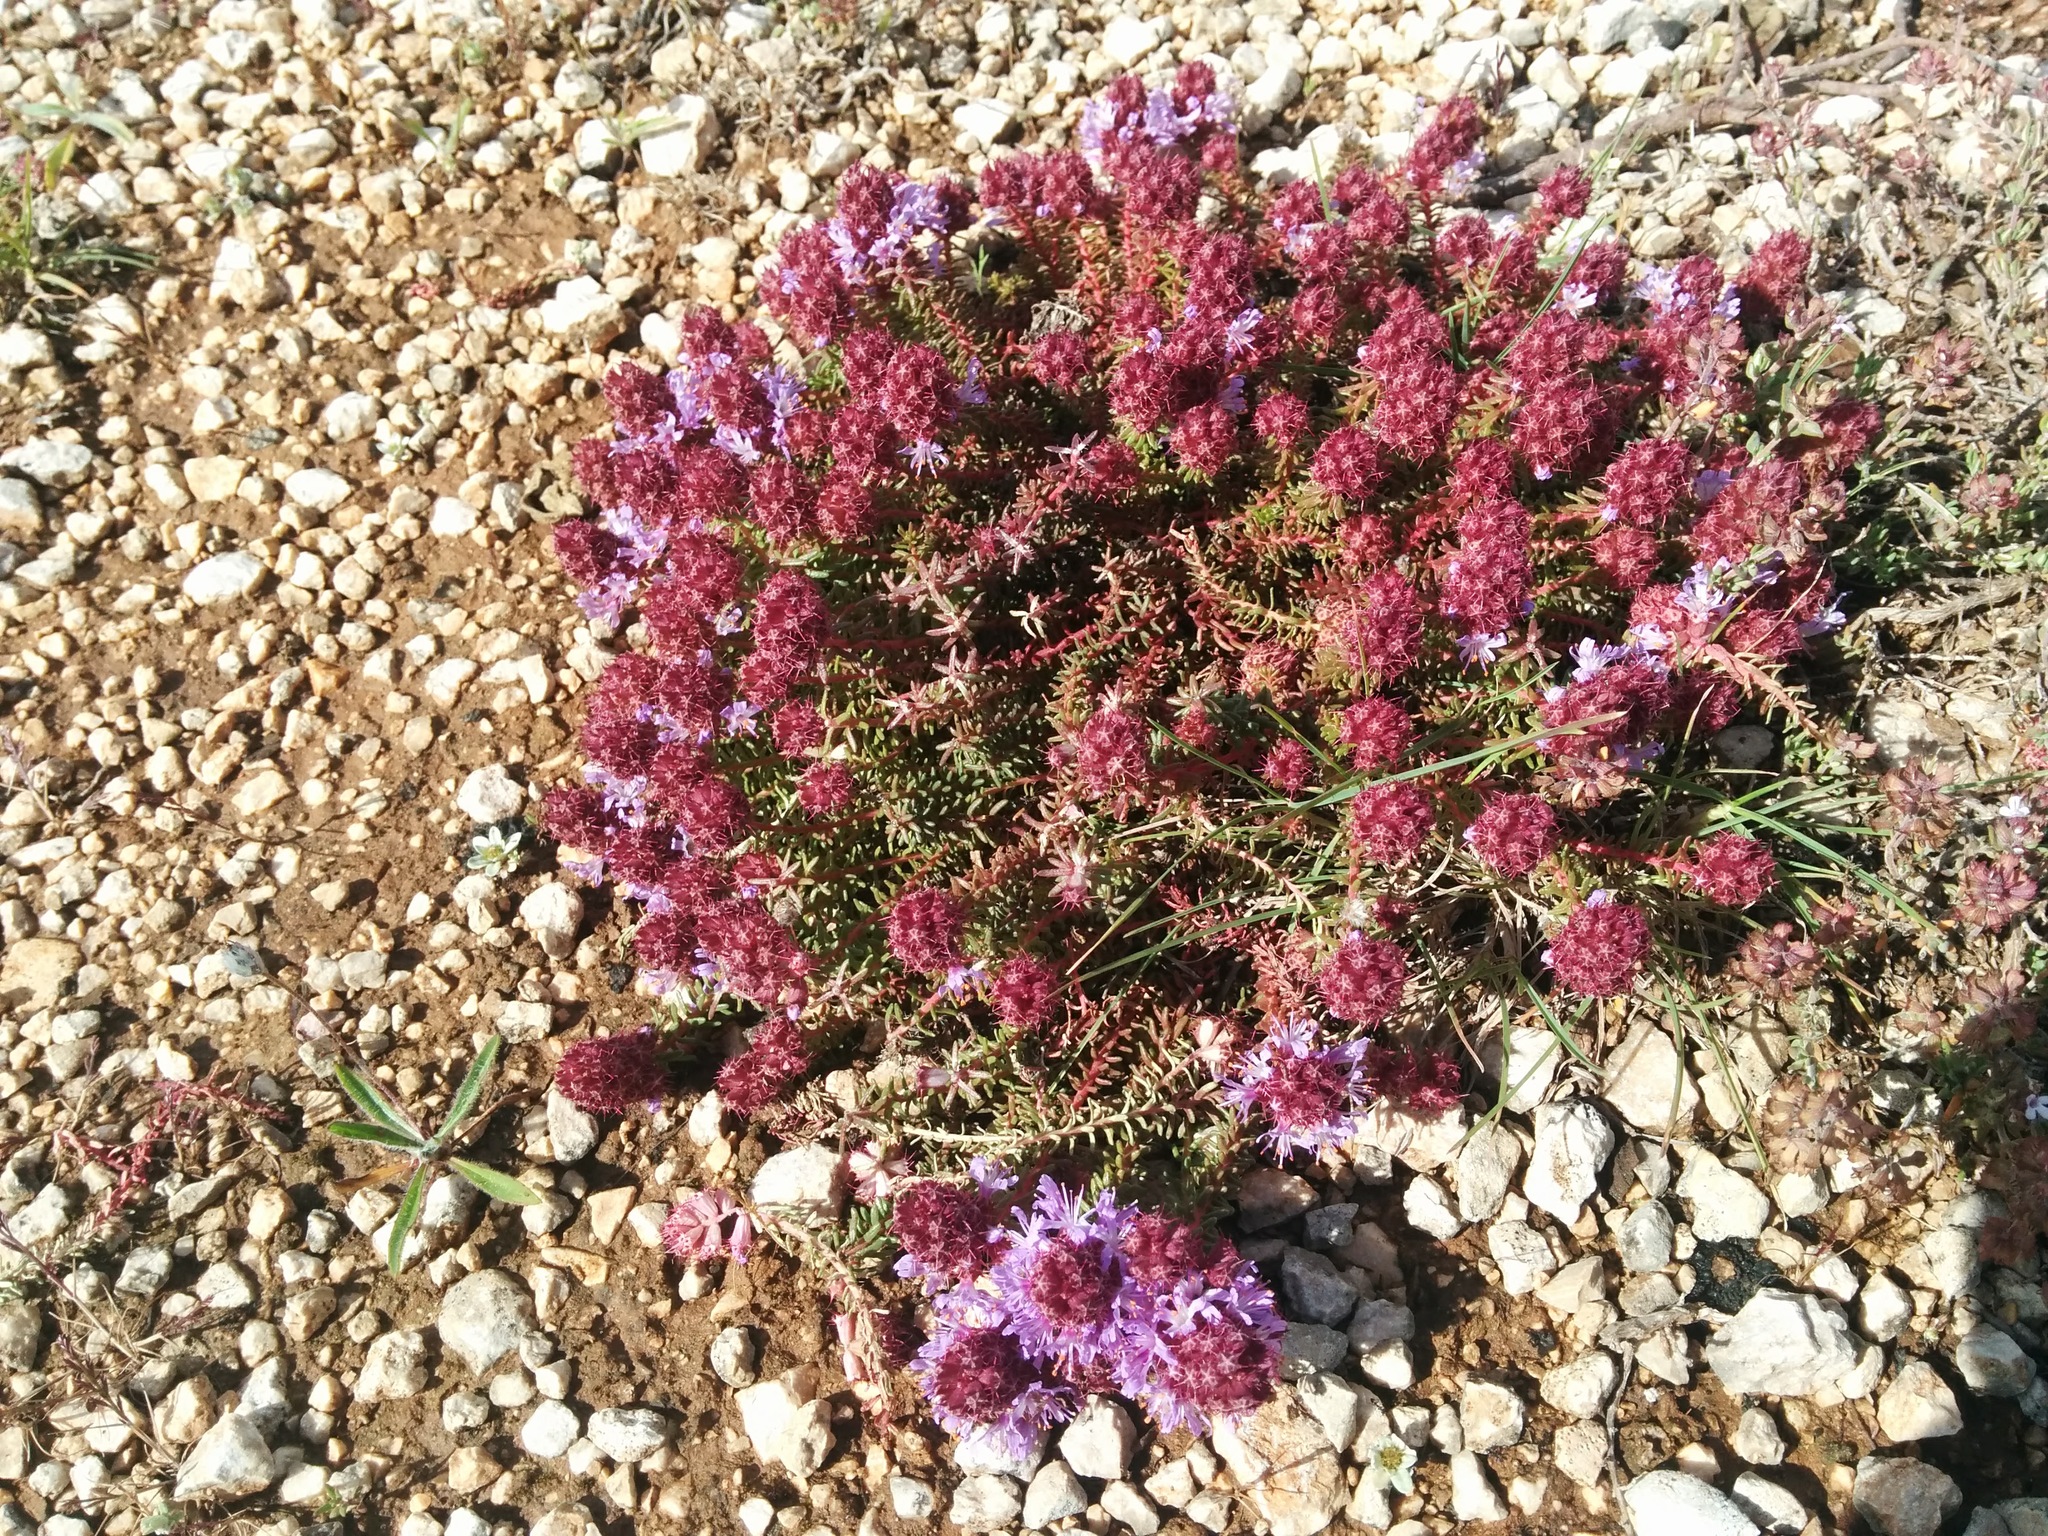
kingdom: Plantae
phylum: Tracheophyta
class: Magnoliopsida
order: Ericales
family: Primulaceae
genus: Coris
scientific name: Coris monspeliensis
